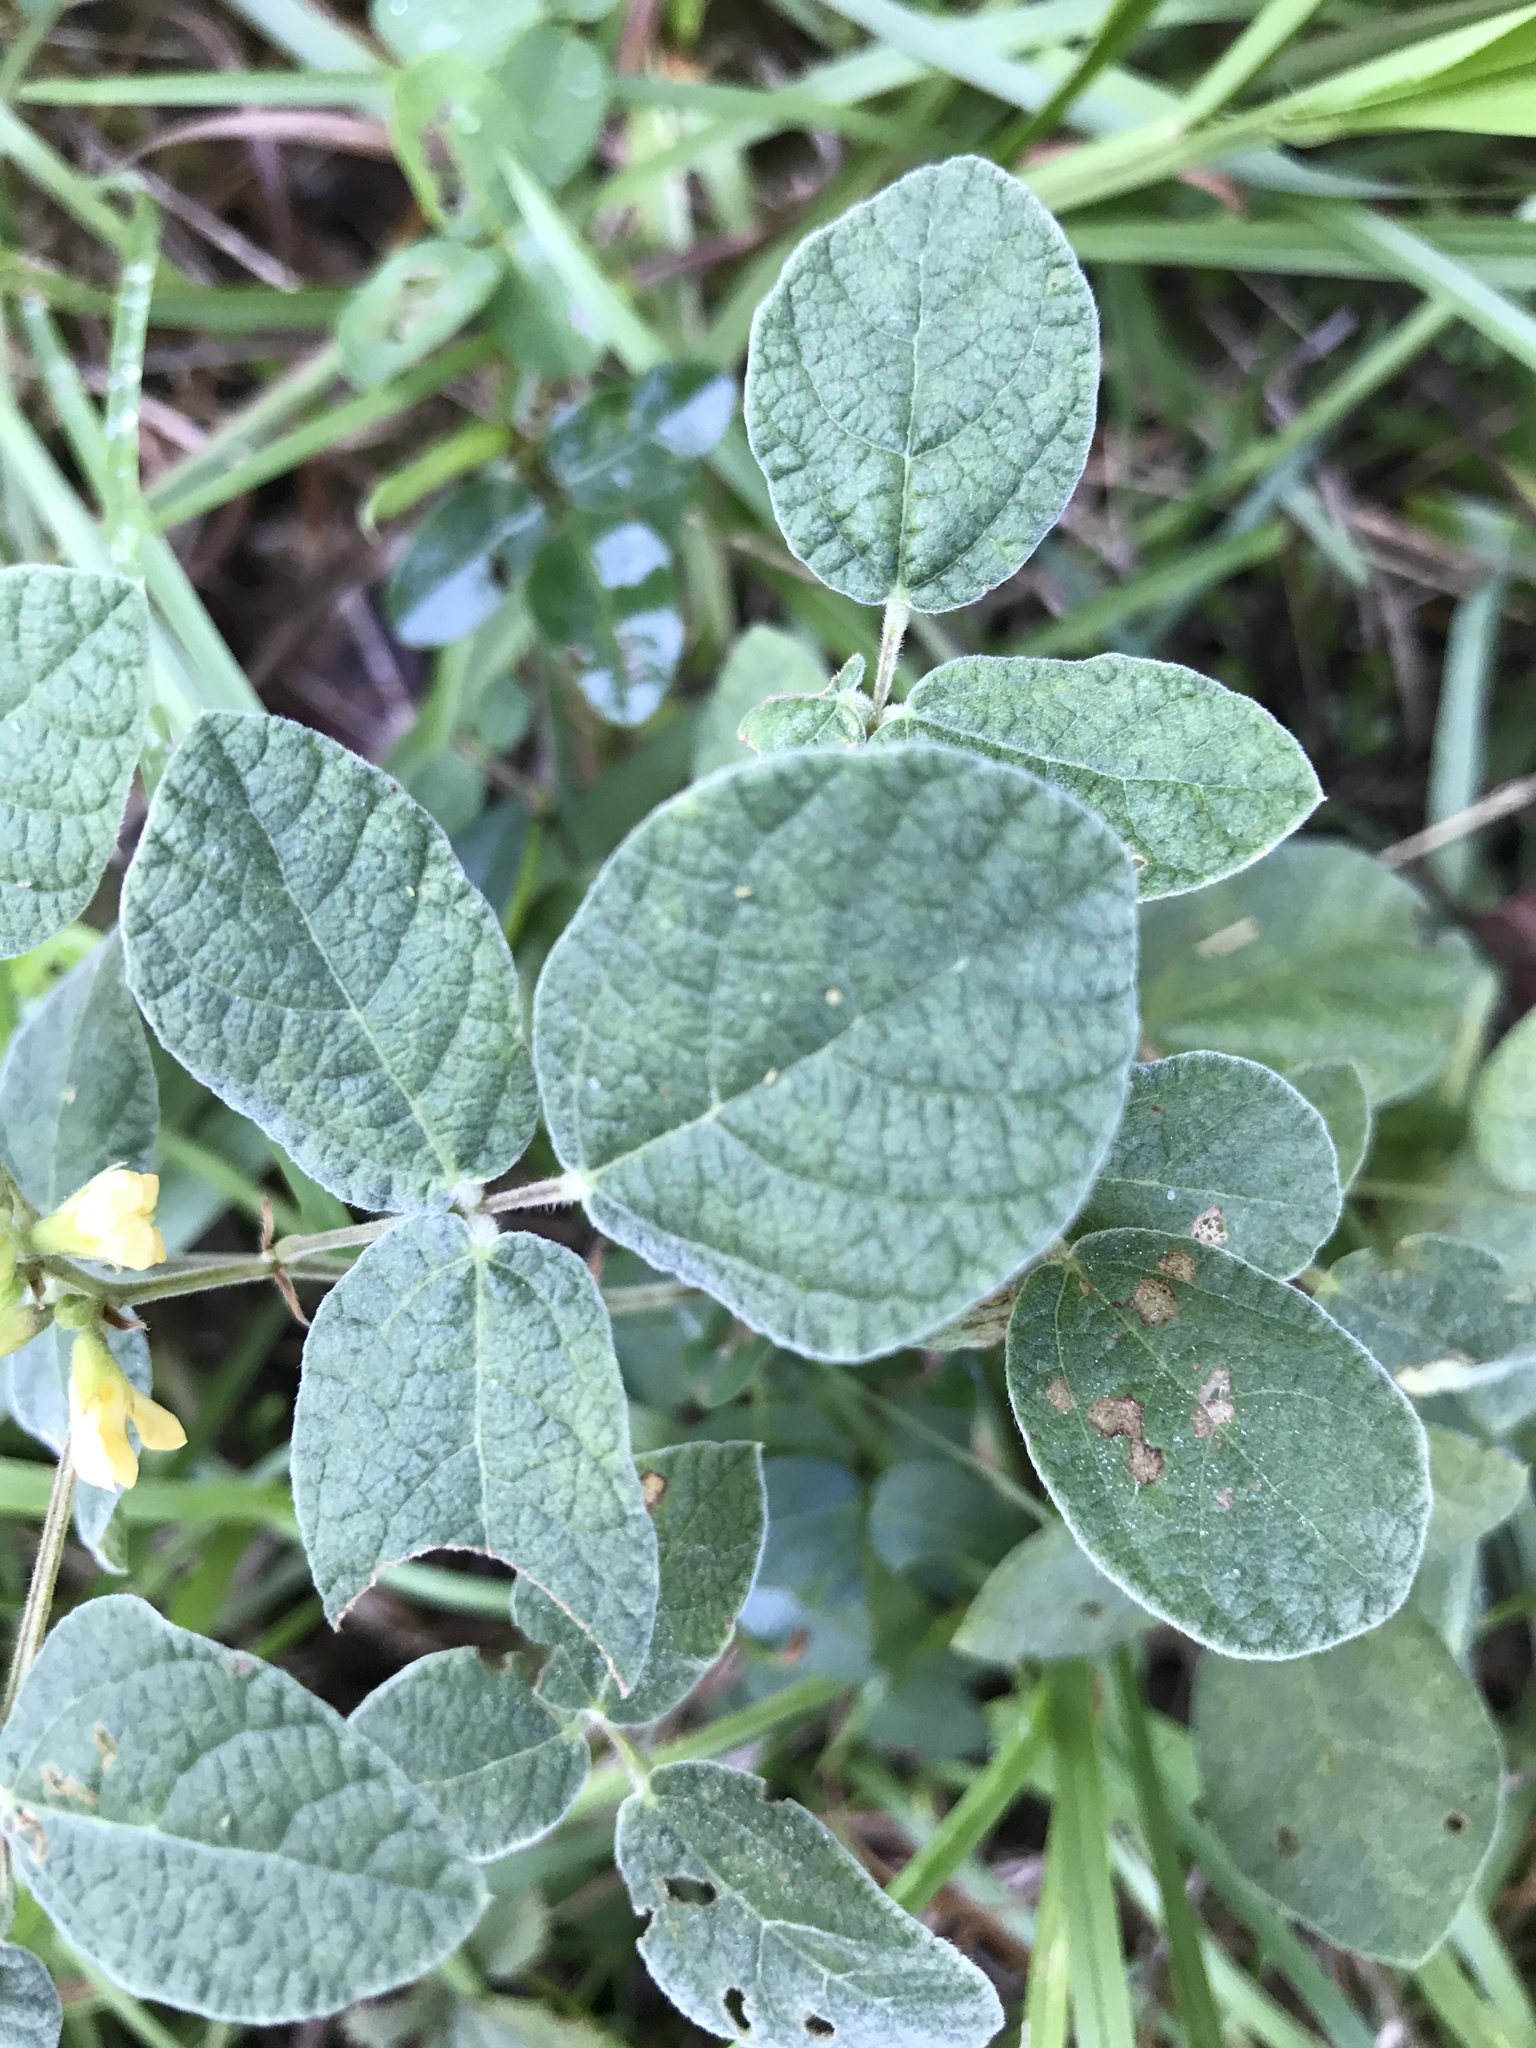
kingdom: Plantae
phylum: Tracheophyta
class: Magnoliopsida
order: Fabales
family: Fabaceae
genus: Rhynchosia
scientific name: Rhynchosia tomentosa
